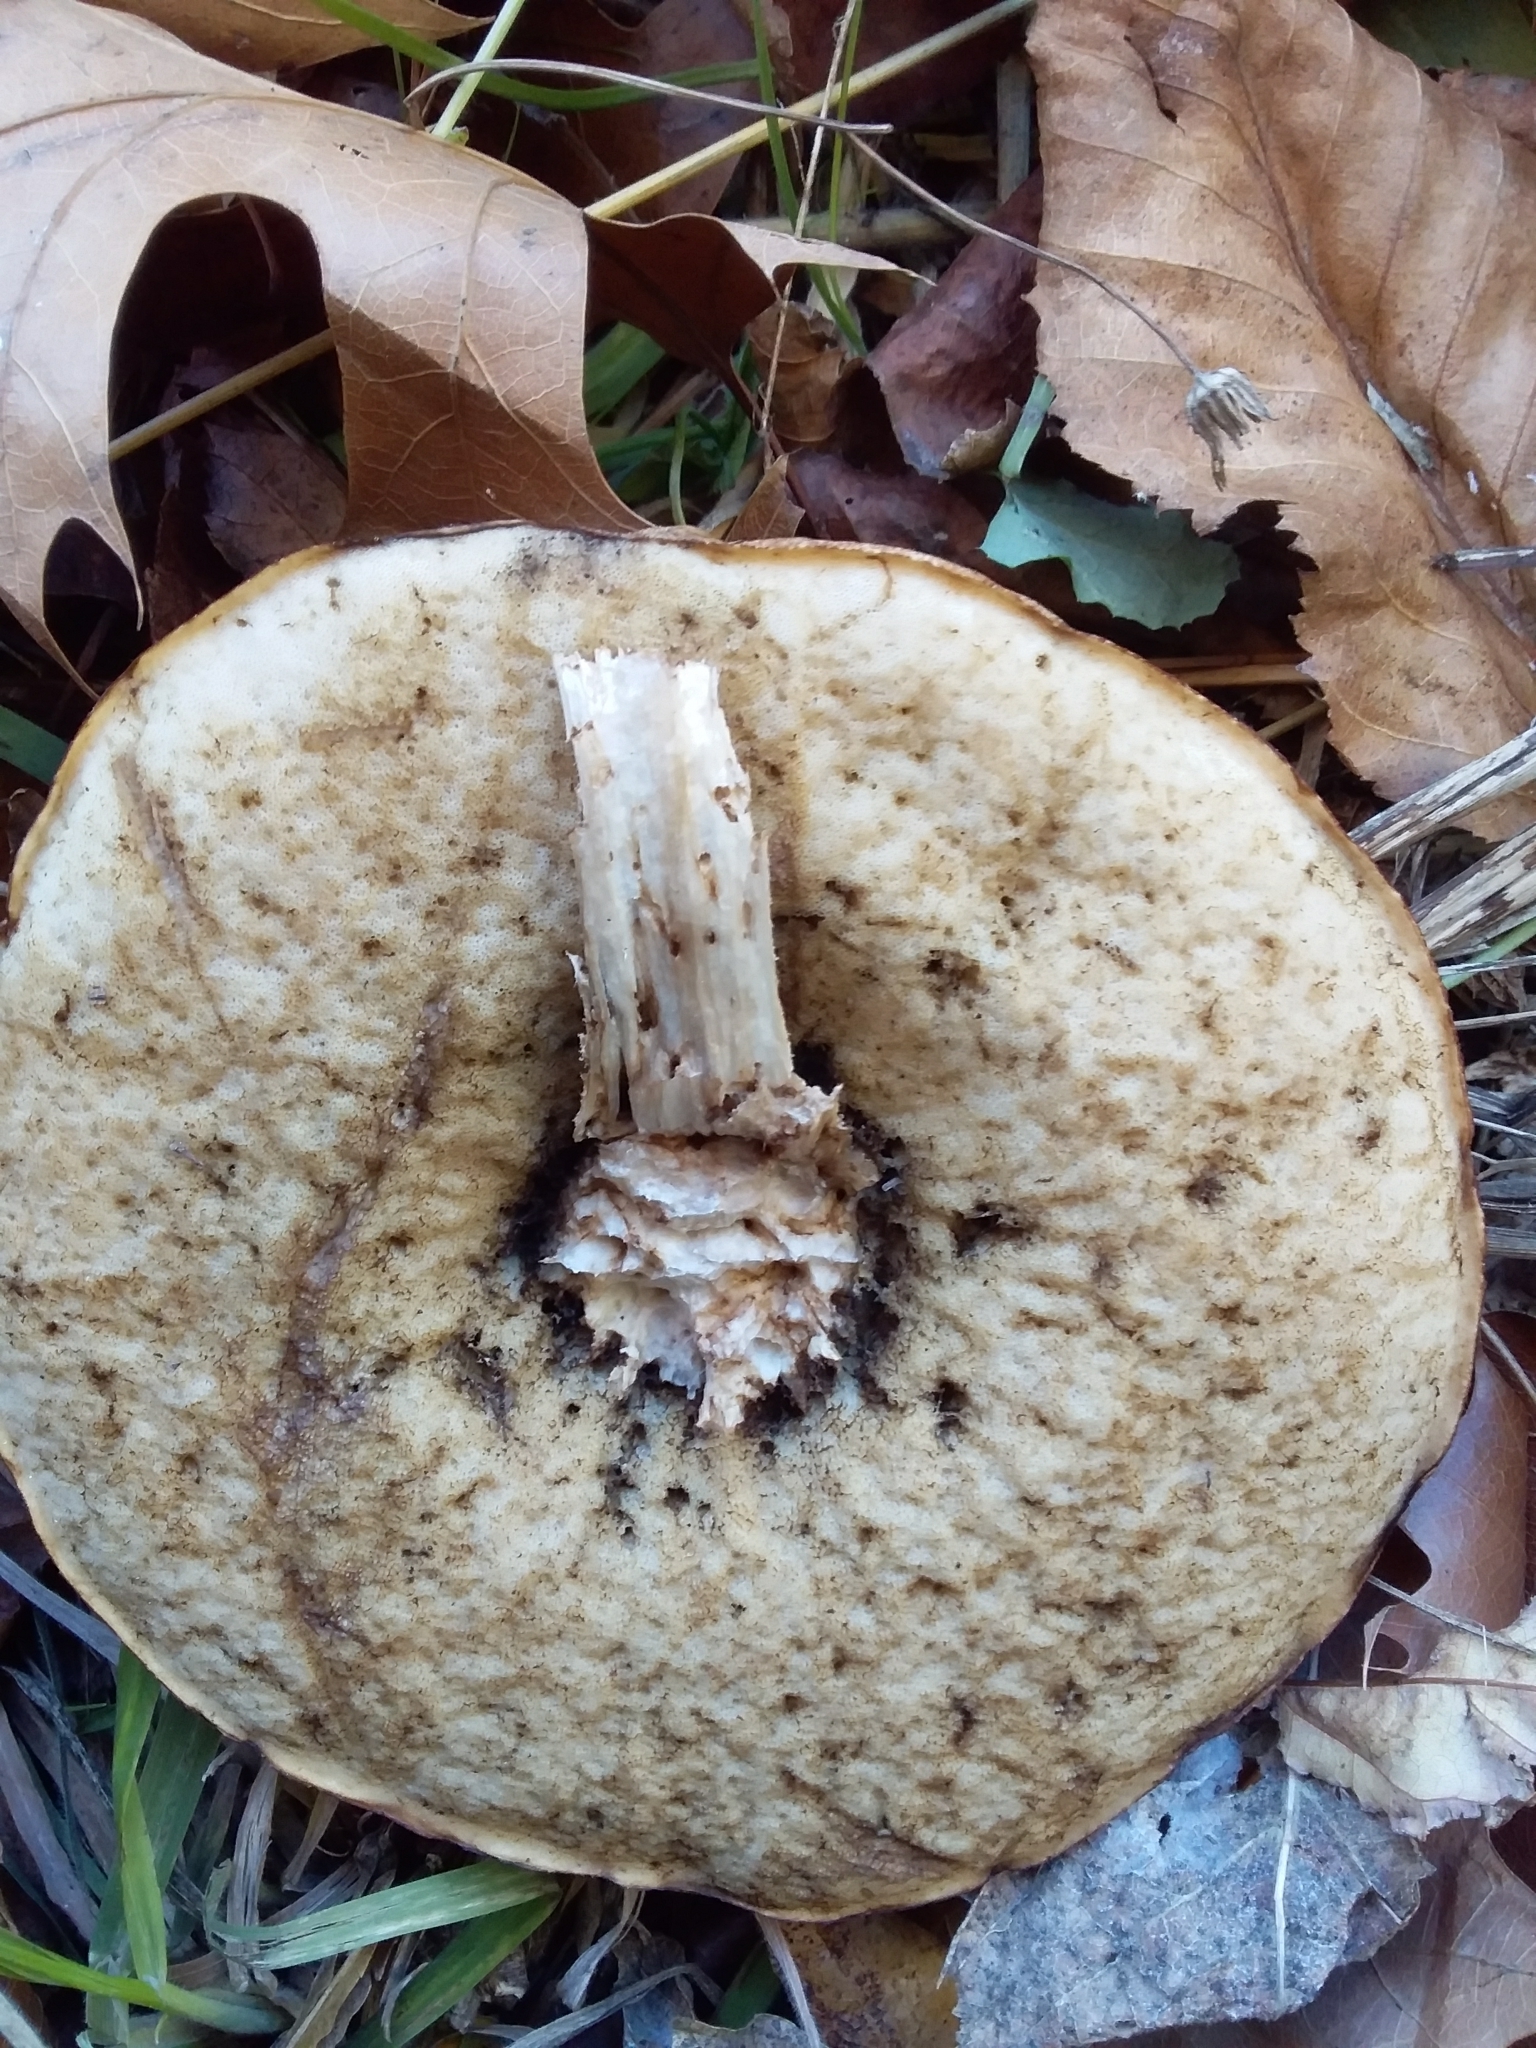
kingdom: Fungi
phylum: Basidiomycota
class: Agaricomycetes
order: Boletales
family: Boletaceae
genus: Leccinum
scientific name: Leccinum scabrum
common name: Blushing bolete
